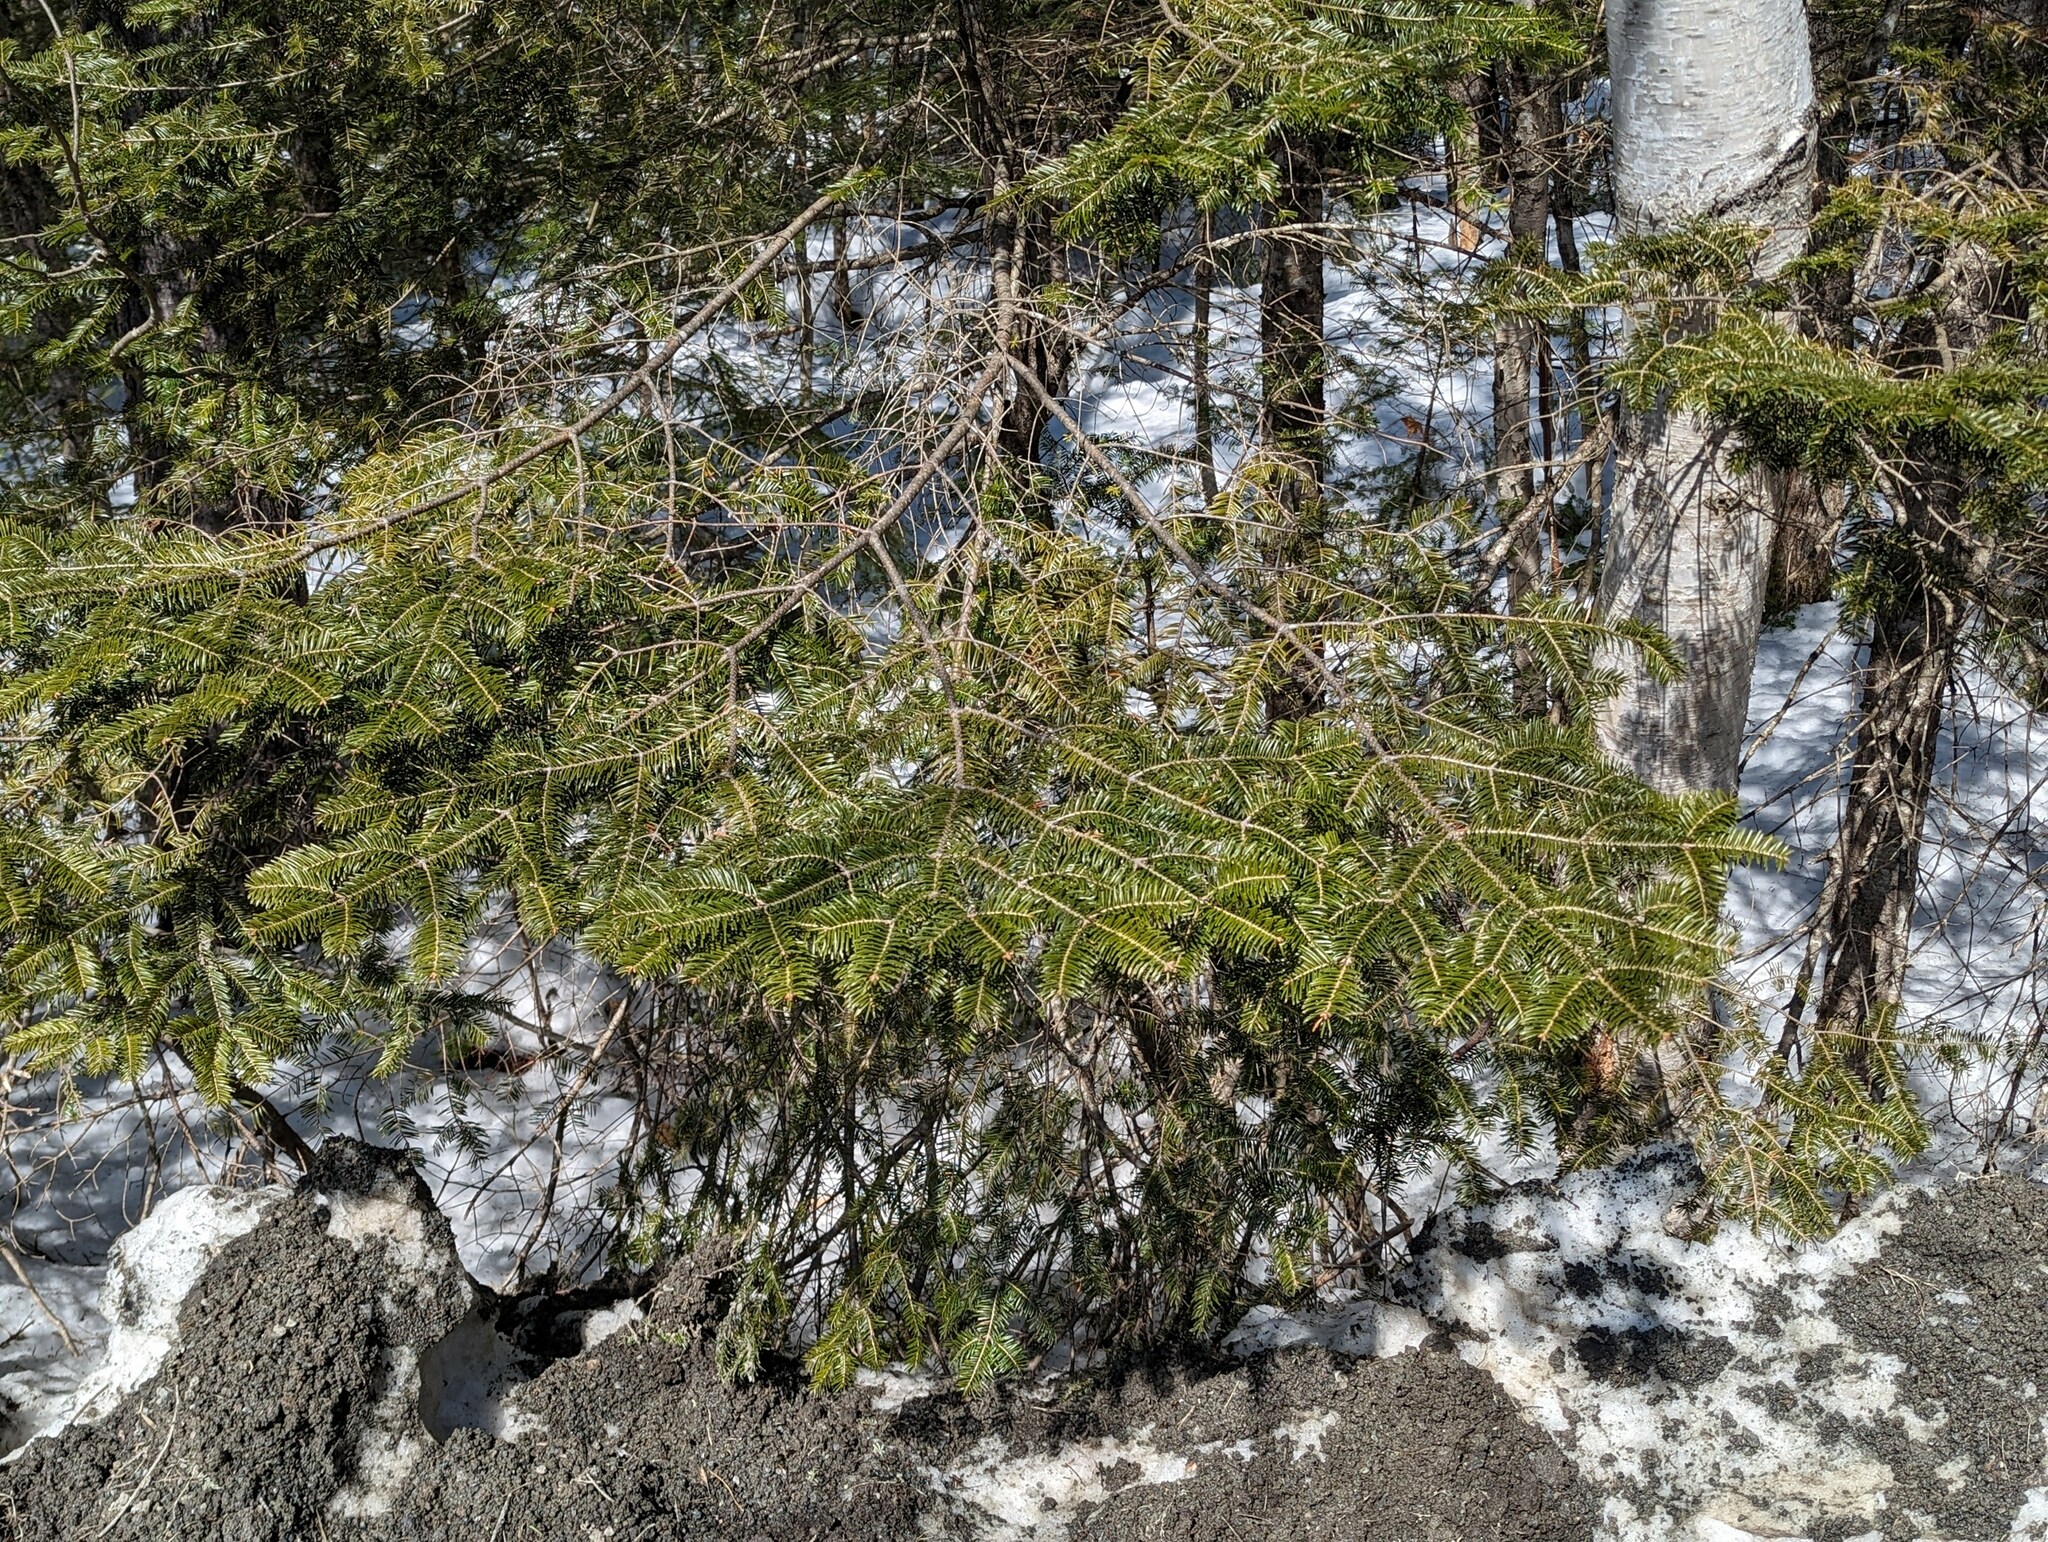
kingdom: Plantae
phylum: Tracheophyta
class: Pinopsida
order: Pinales
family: Pinaceae
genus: Abies
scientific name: Abies balsamea
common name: Balsam fir
